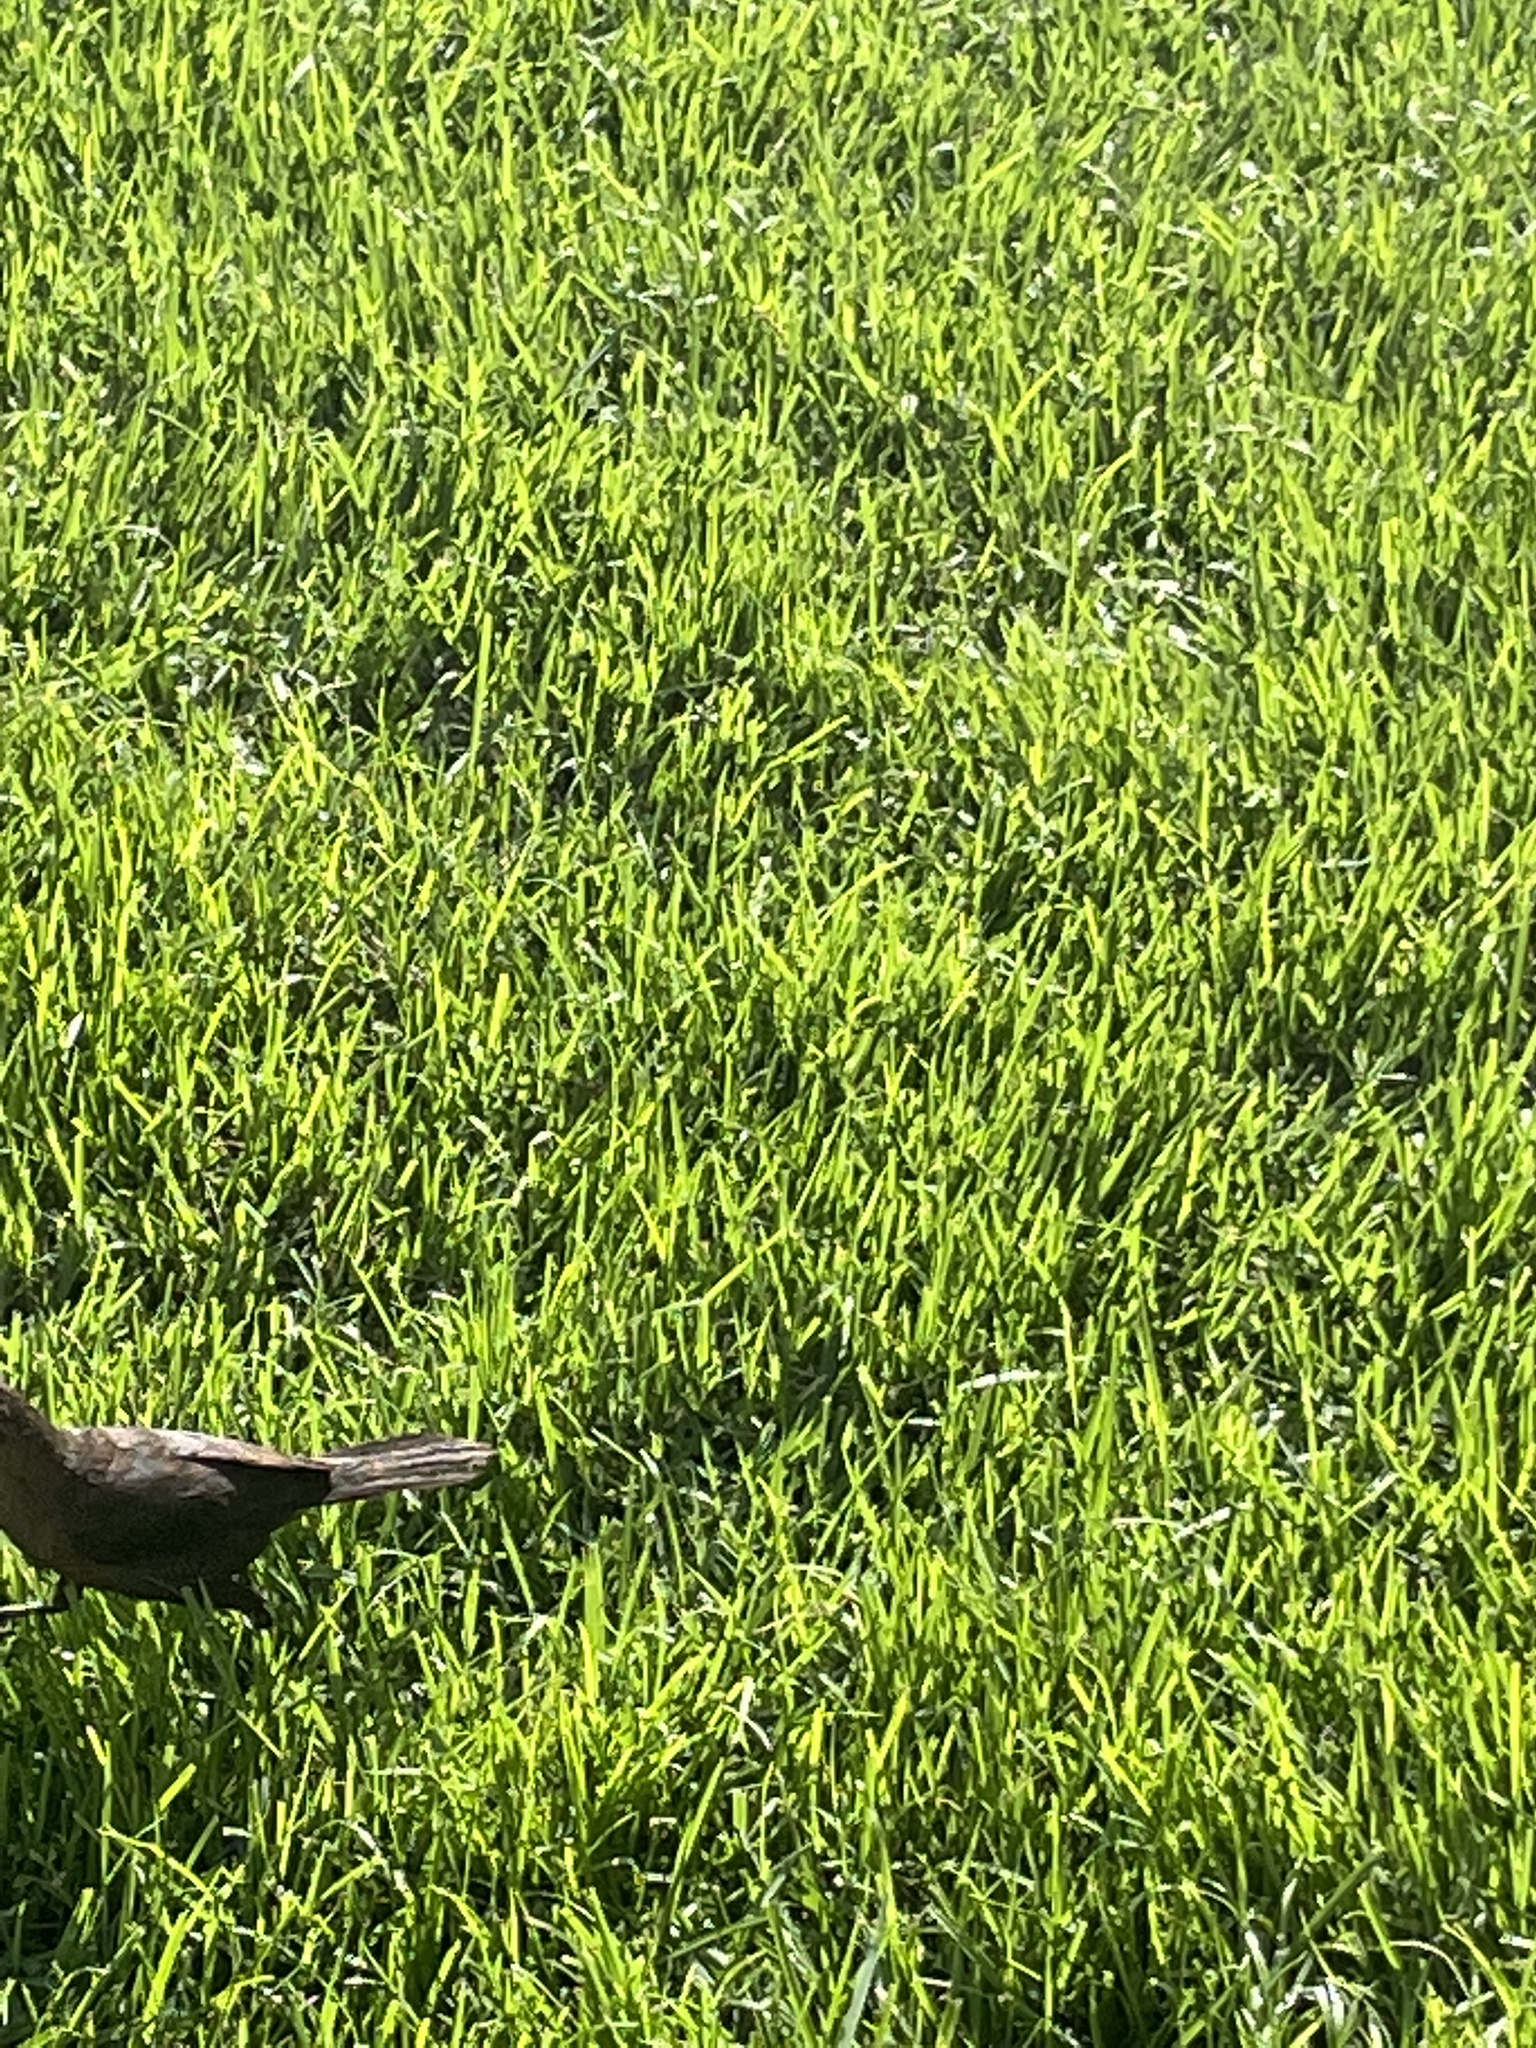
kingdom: Animalia
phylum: Chordata
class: Aves
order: Passeriformes
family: Icteridae
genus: Quiscalus
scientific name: Quiscalus lugubris
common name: Carib grackle
